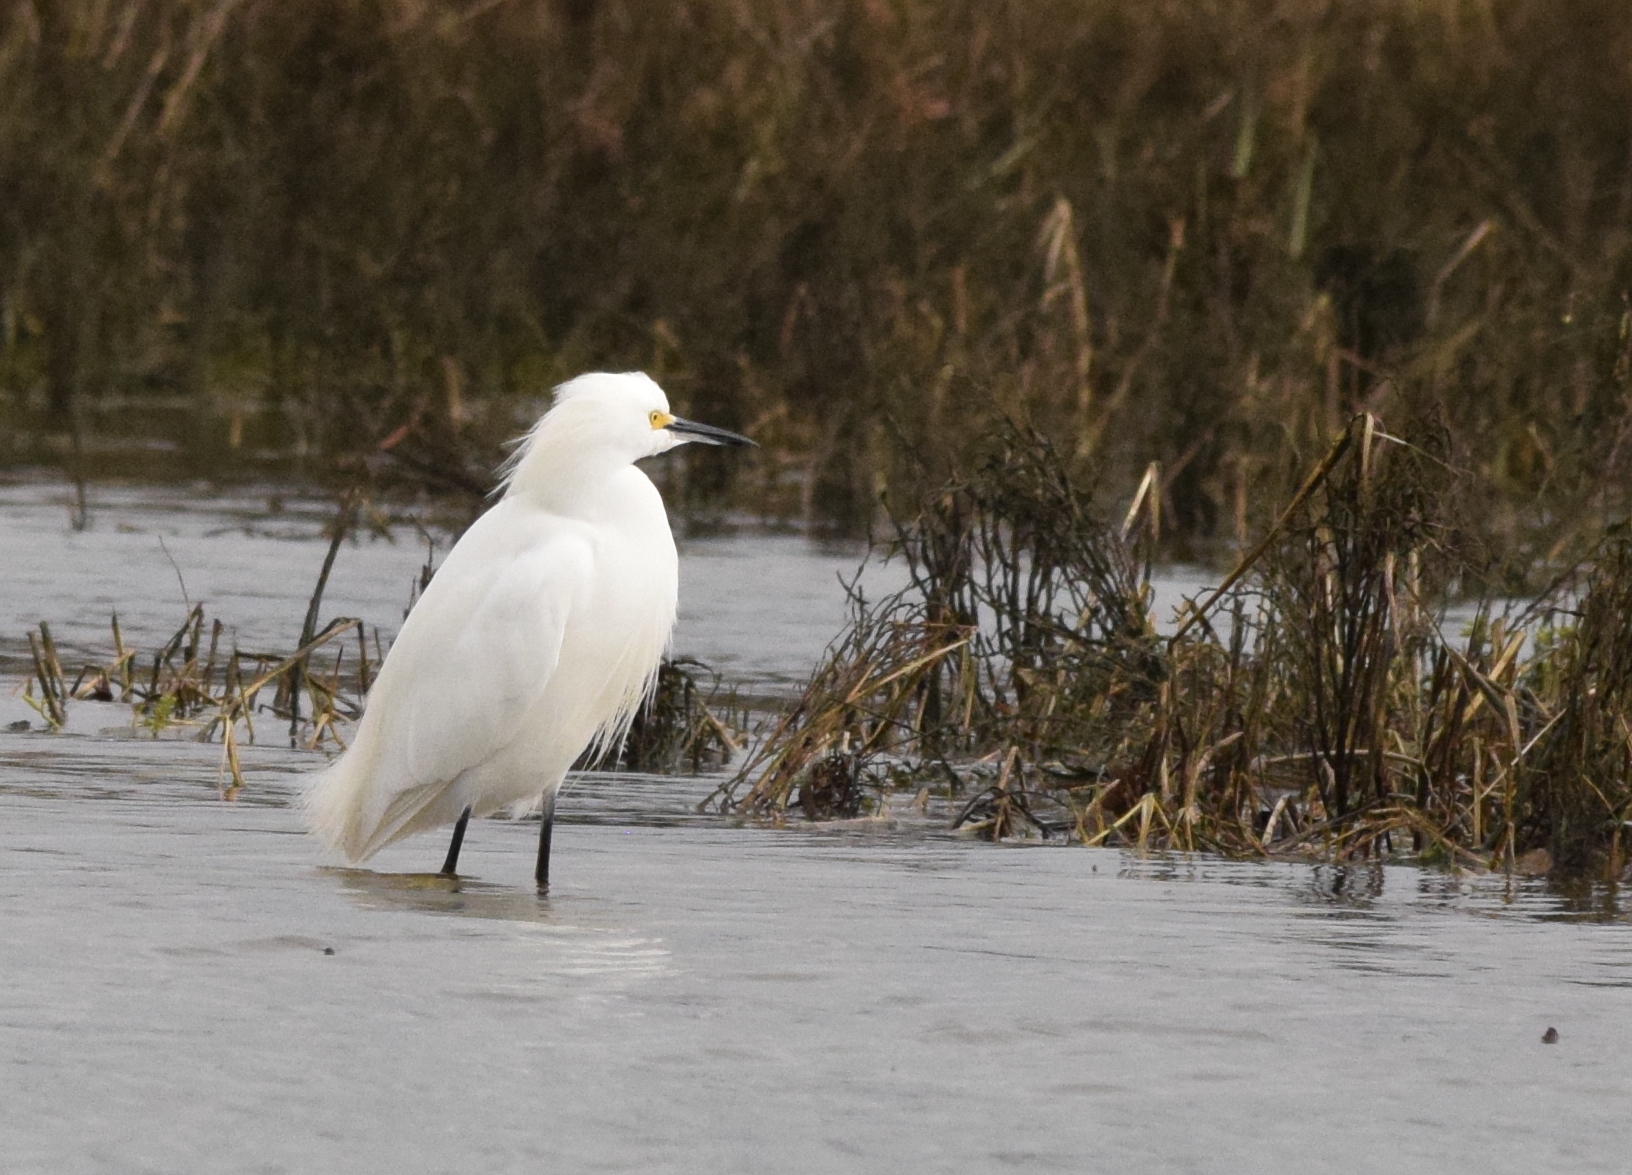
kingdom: Animalia
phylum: Chordata
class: Aves
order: Pelecaniformes
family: Ardeidae
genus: Egretta
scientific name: Egretta thula
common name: Snowy egret
